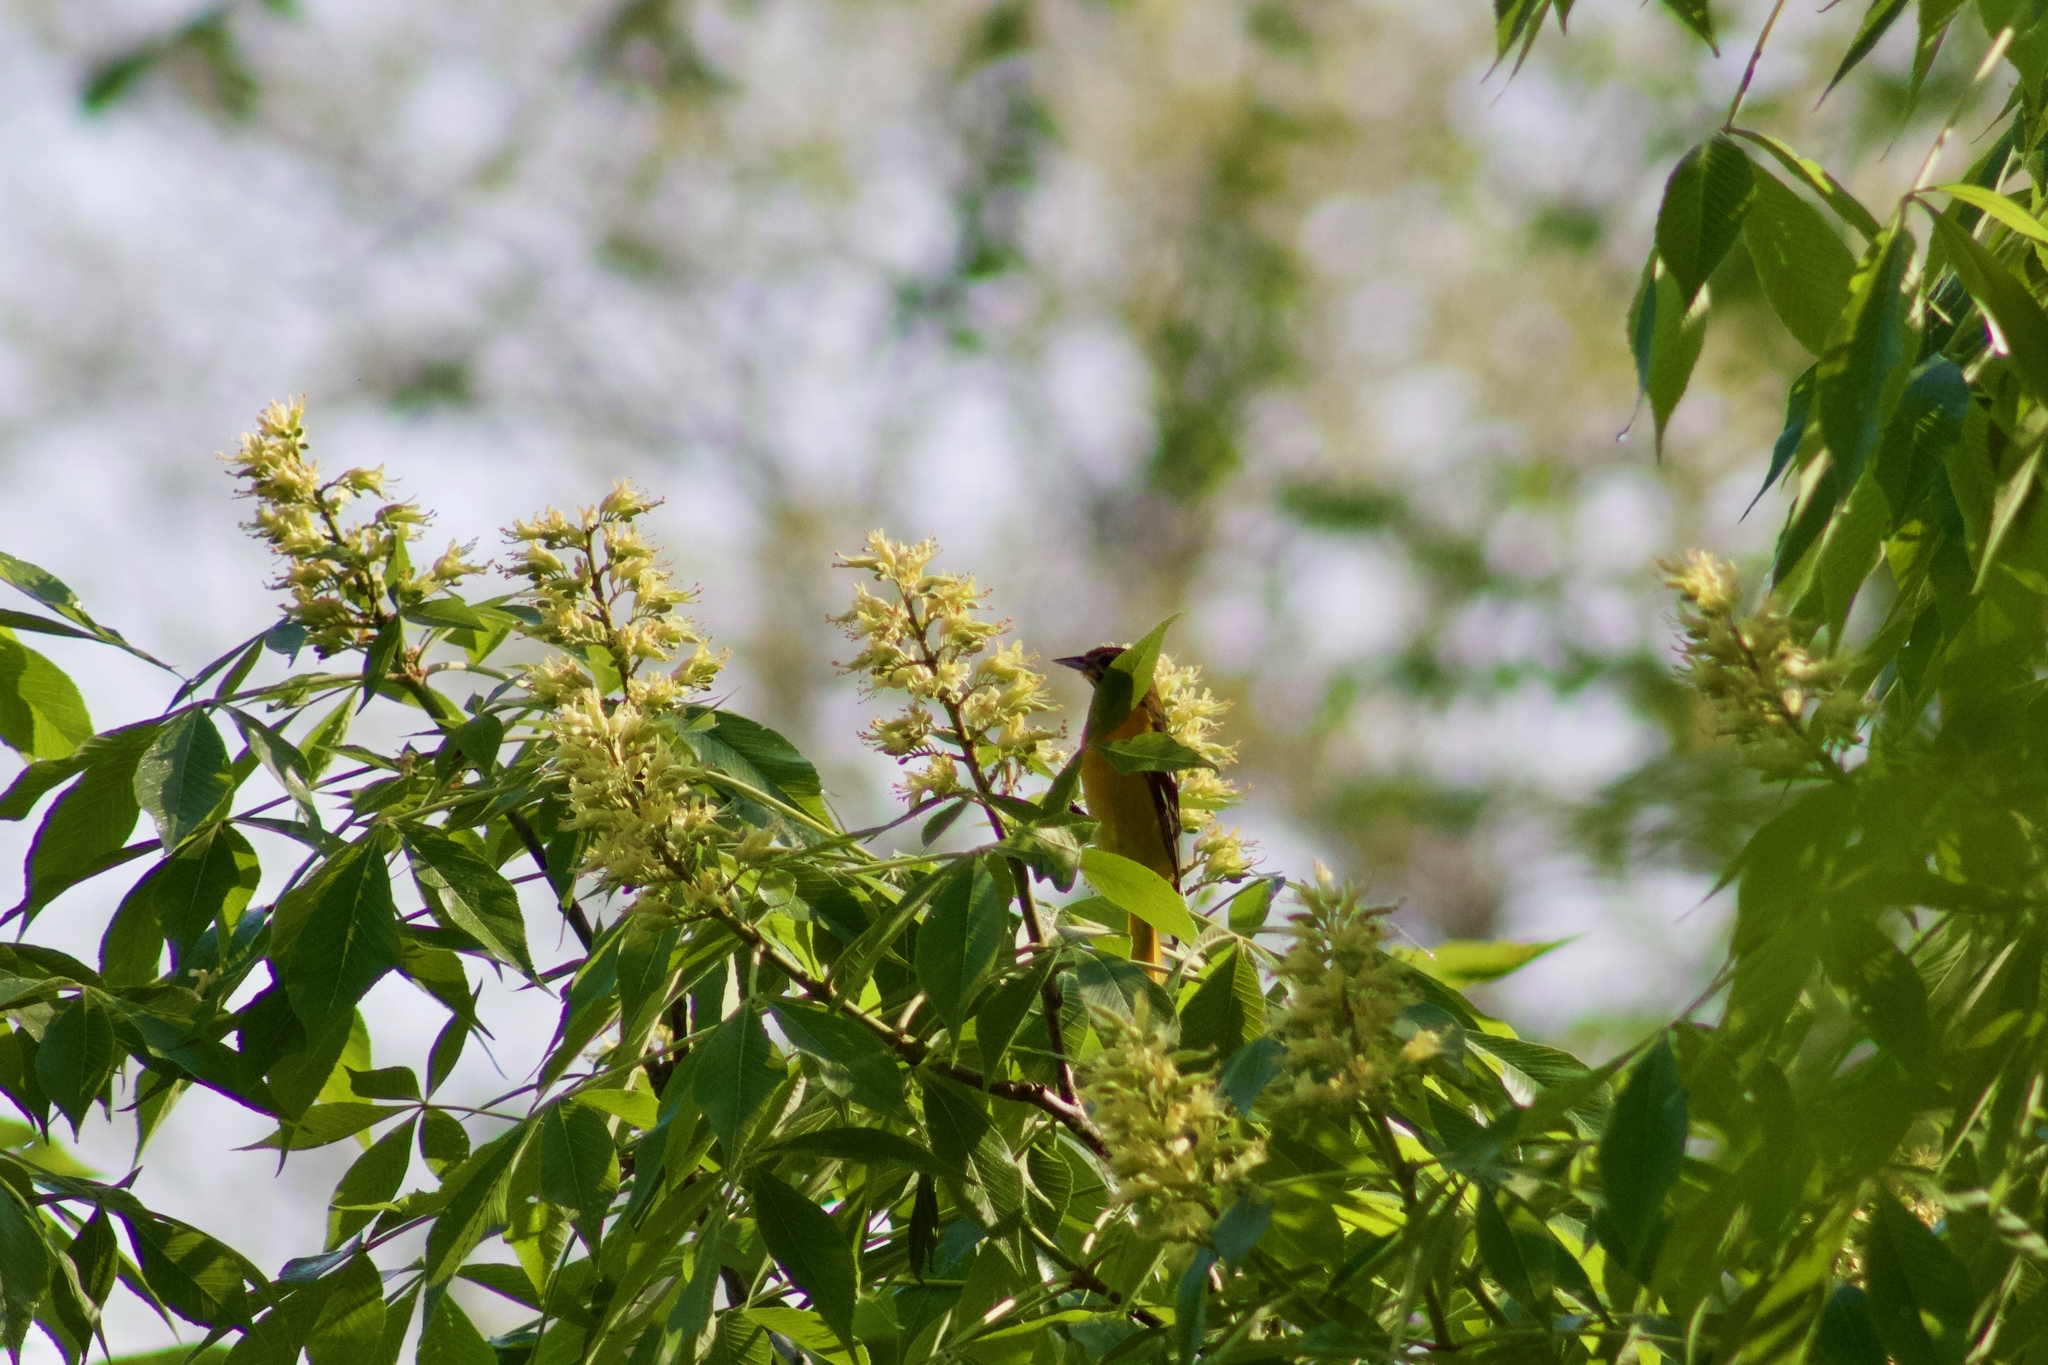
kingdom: Animalia
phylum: Chordata
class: Aves
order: Passeriformes
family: Icteridae
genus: Icterus
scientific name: Icterus spurius
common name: Orchard oriole
